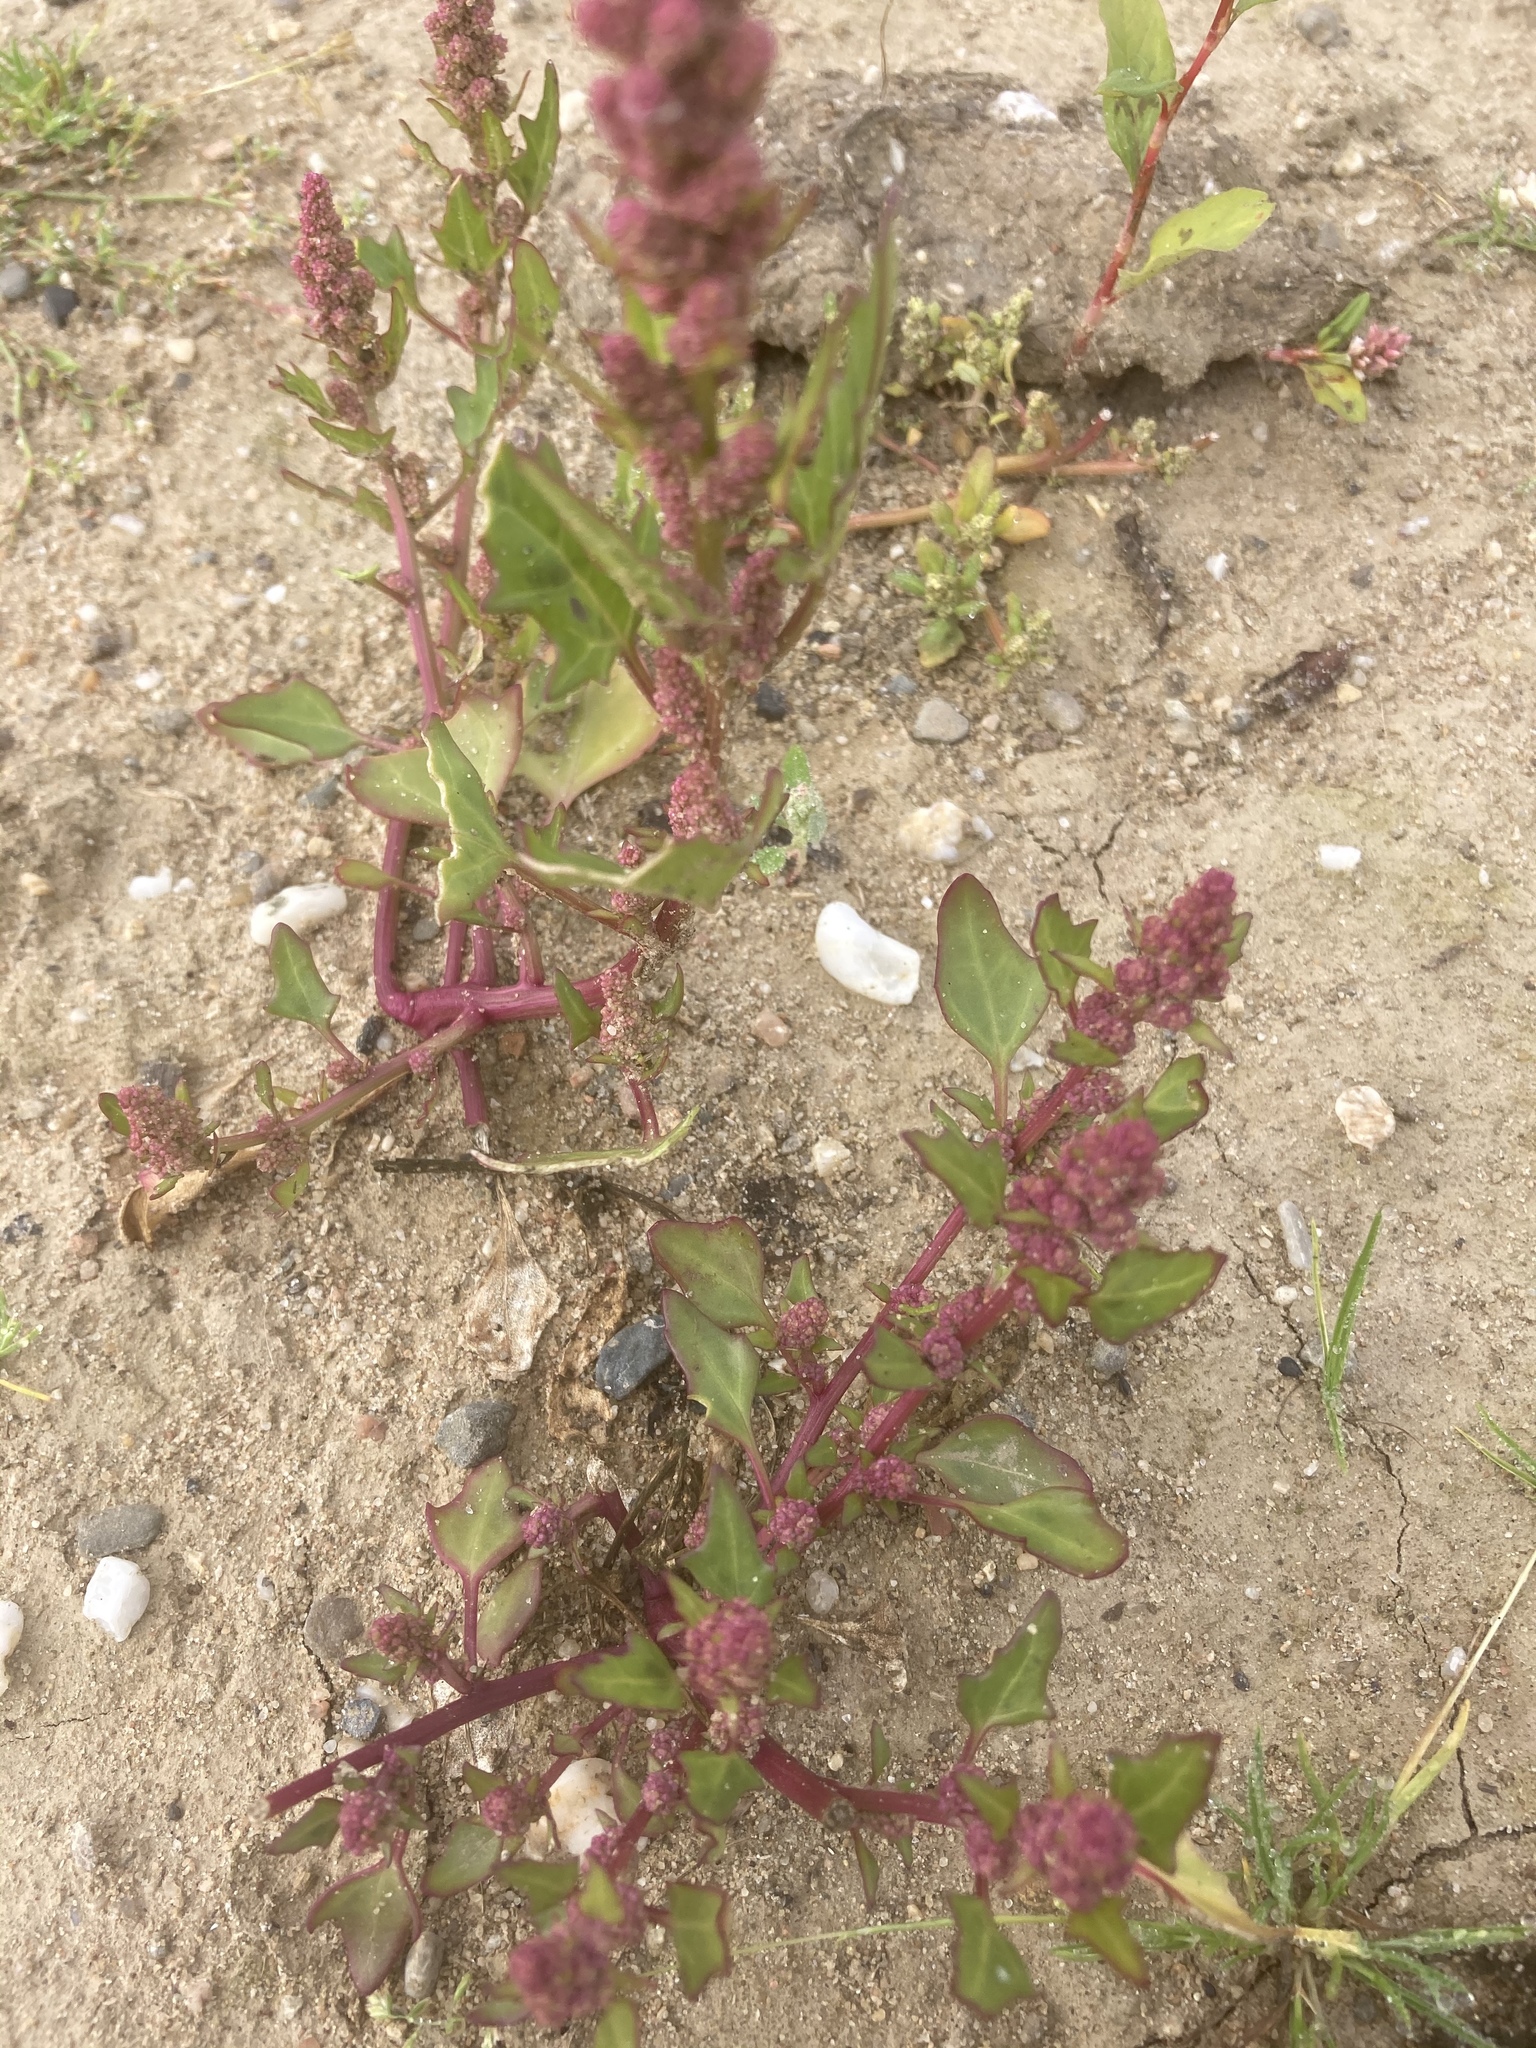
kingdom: Plantae
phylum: Tracheophyta
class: Magnoliopsida
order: Caryophyllales
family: Amaranthaceae
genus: Oxybasis
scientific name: Oxybasis rubra
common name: Red goosefoot
